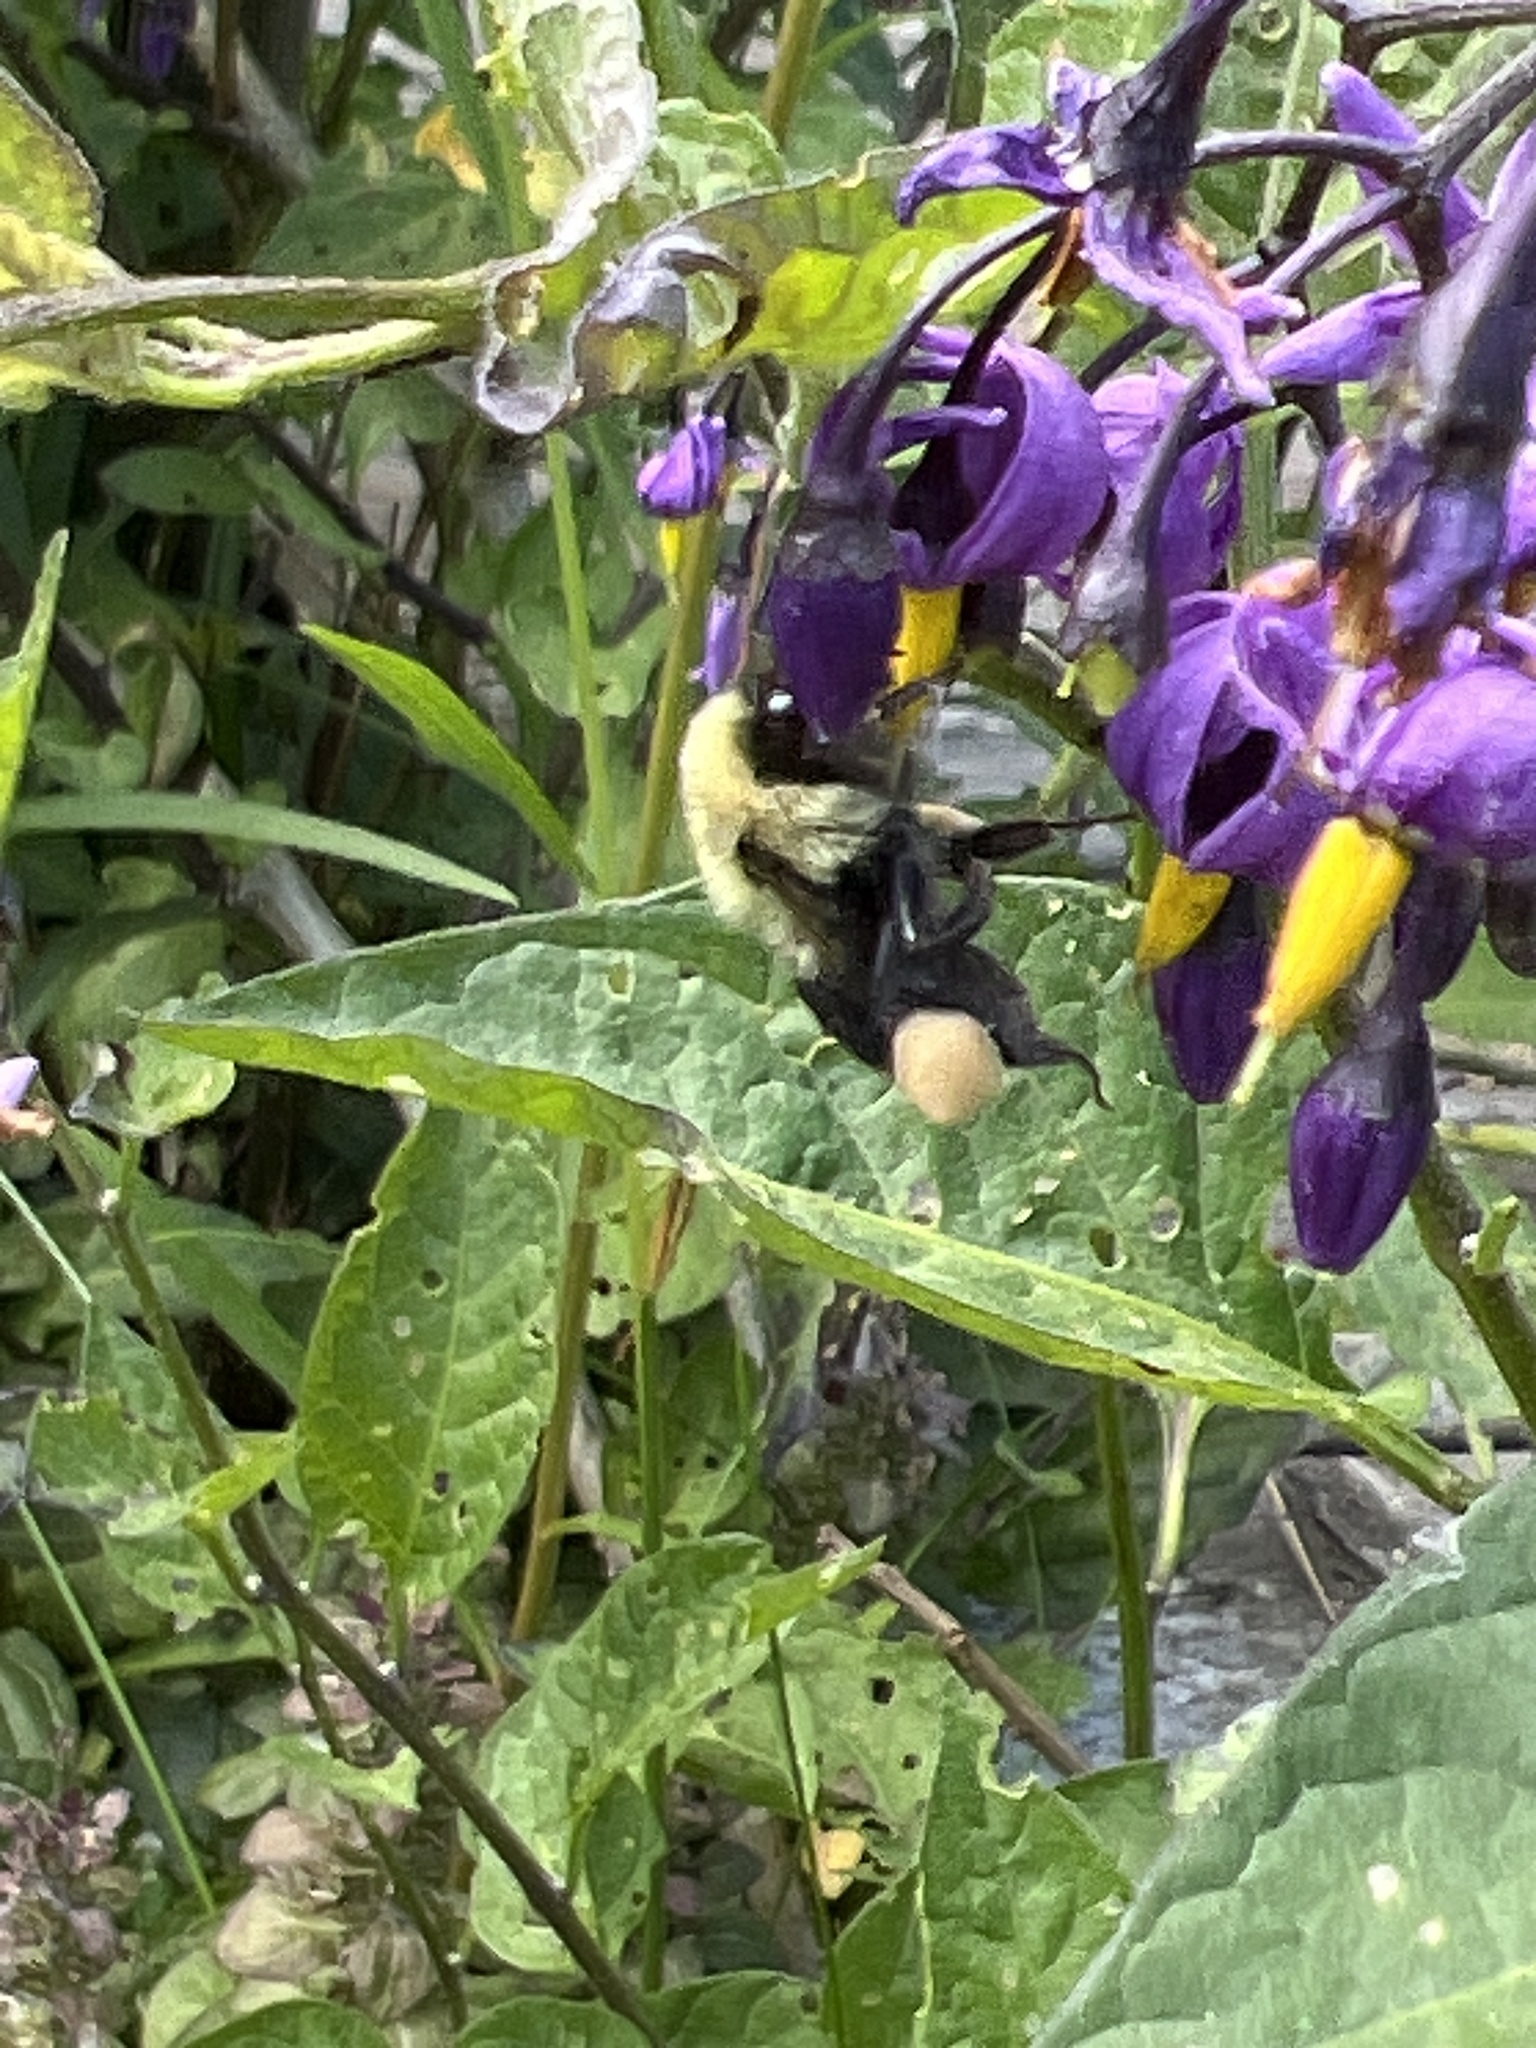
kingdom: Animalia
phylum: Arthropoda
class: Insecta
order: Hymenoptera
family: Apidae
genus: Bombus
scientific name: Bombus impatiens
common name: Common eastern bumble bee
